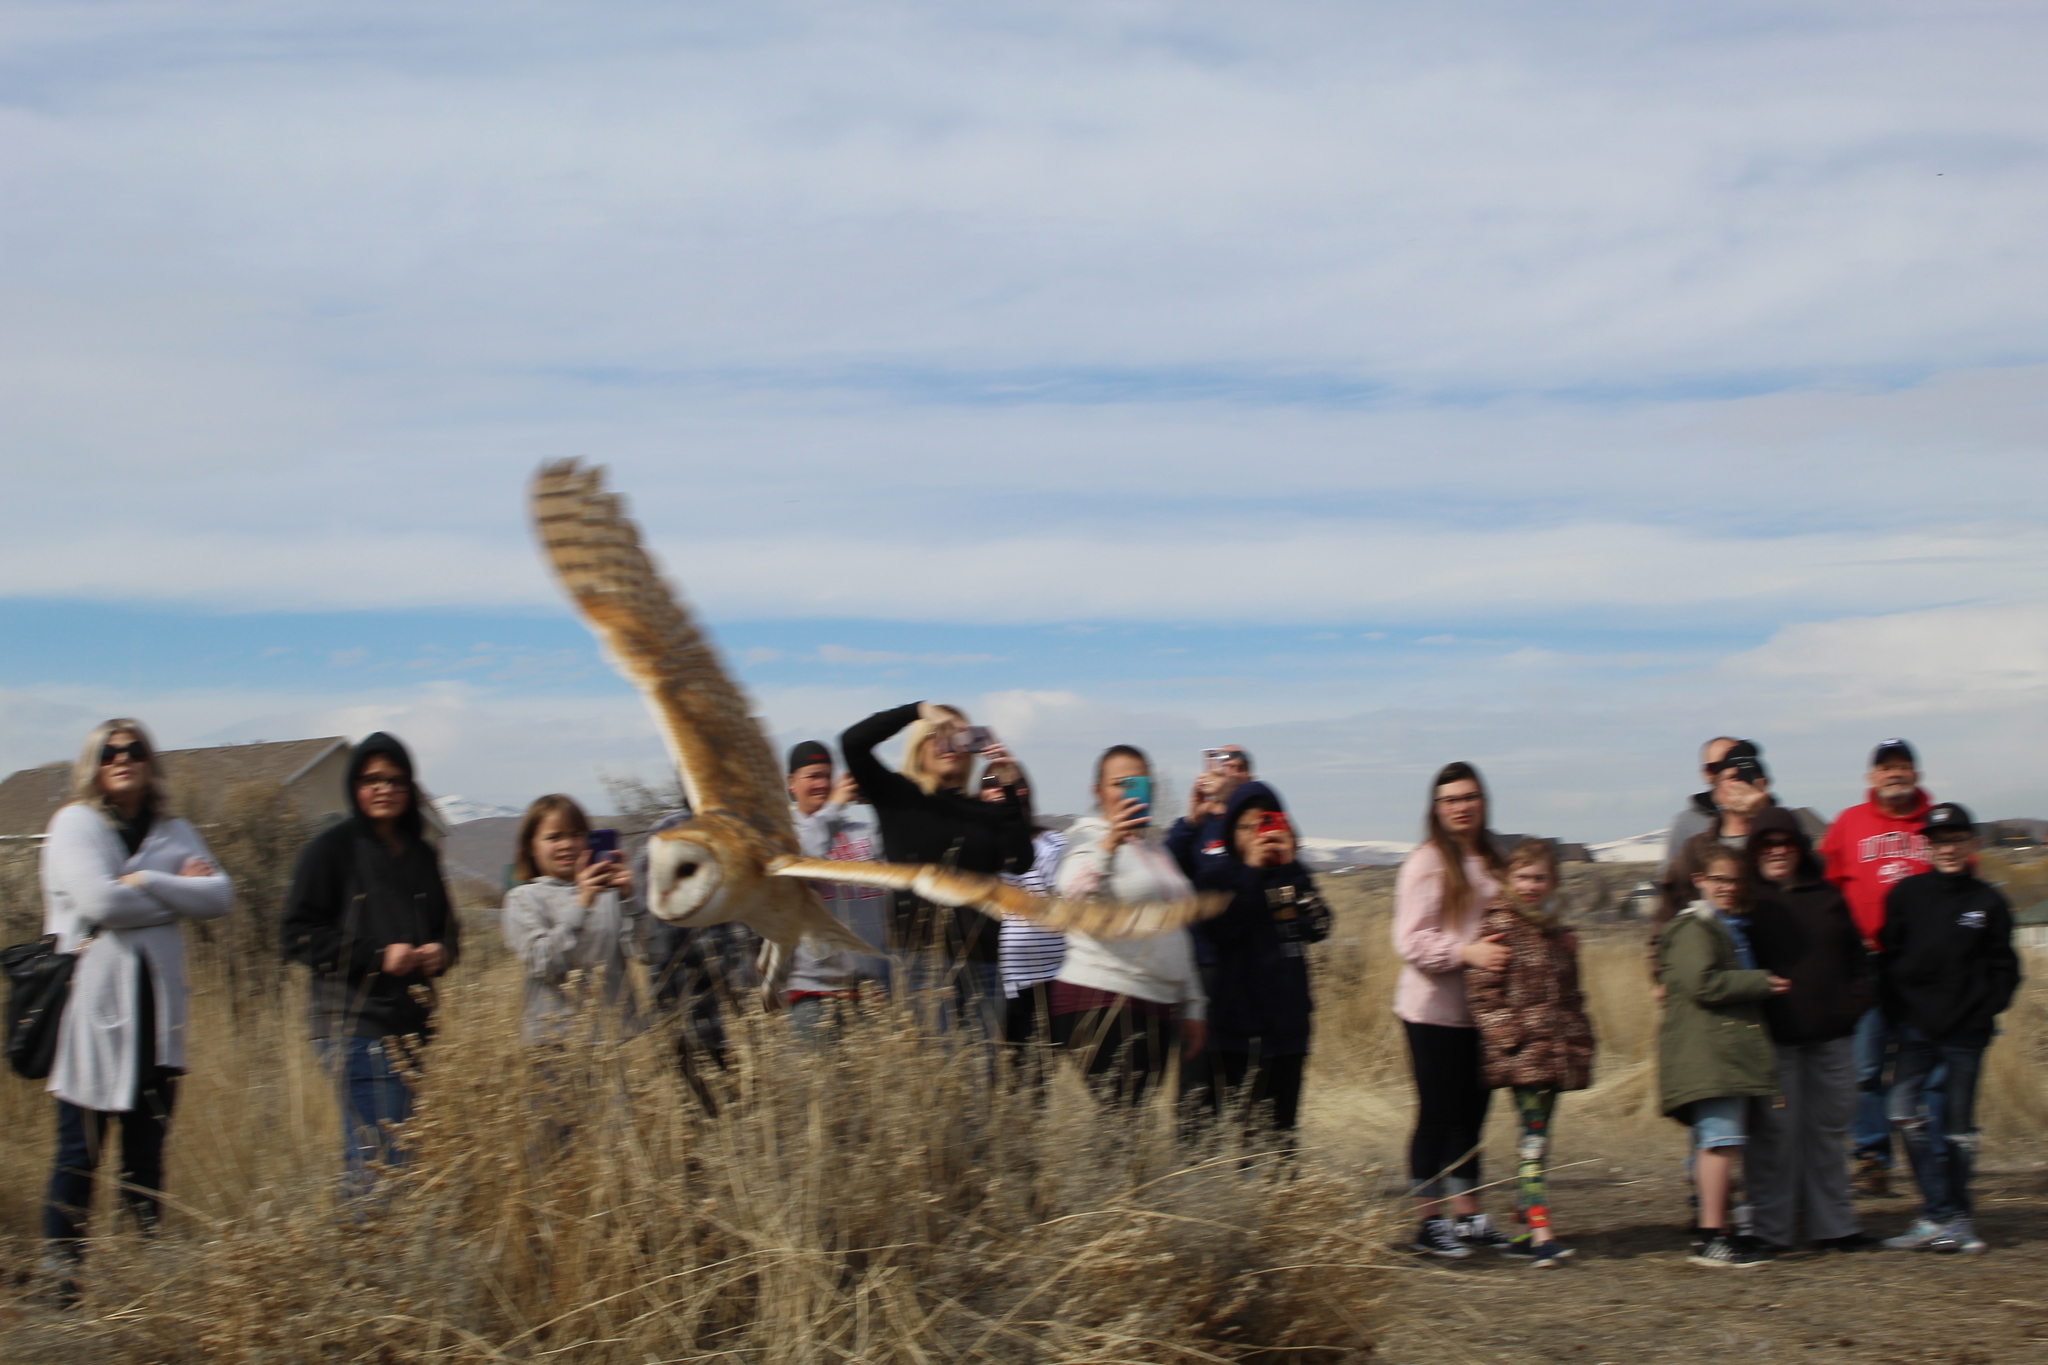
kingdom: Animalia
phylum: Chordata
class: Aves
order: Strigiformes
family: Tytonidae
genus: Tyto
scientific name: Tyto alba
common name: Barn owl
